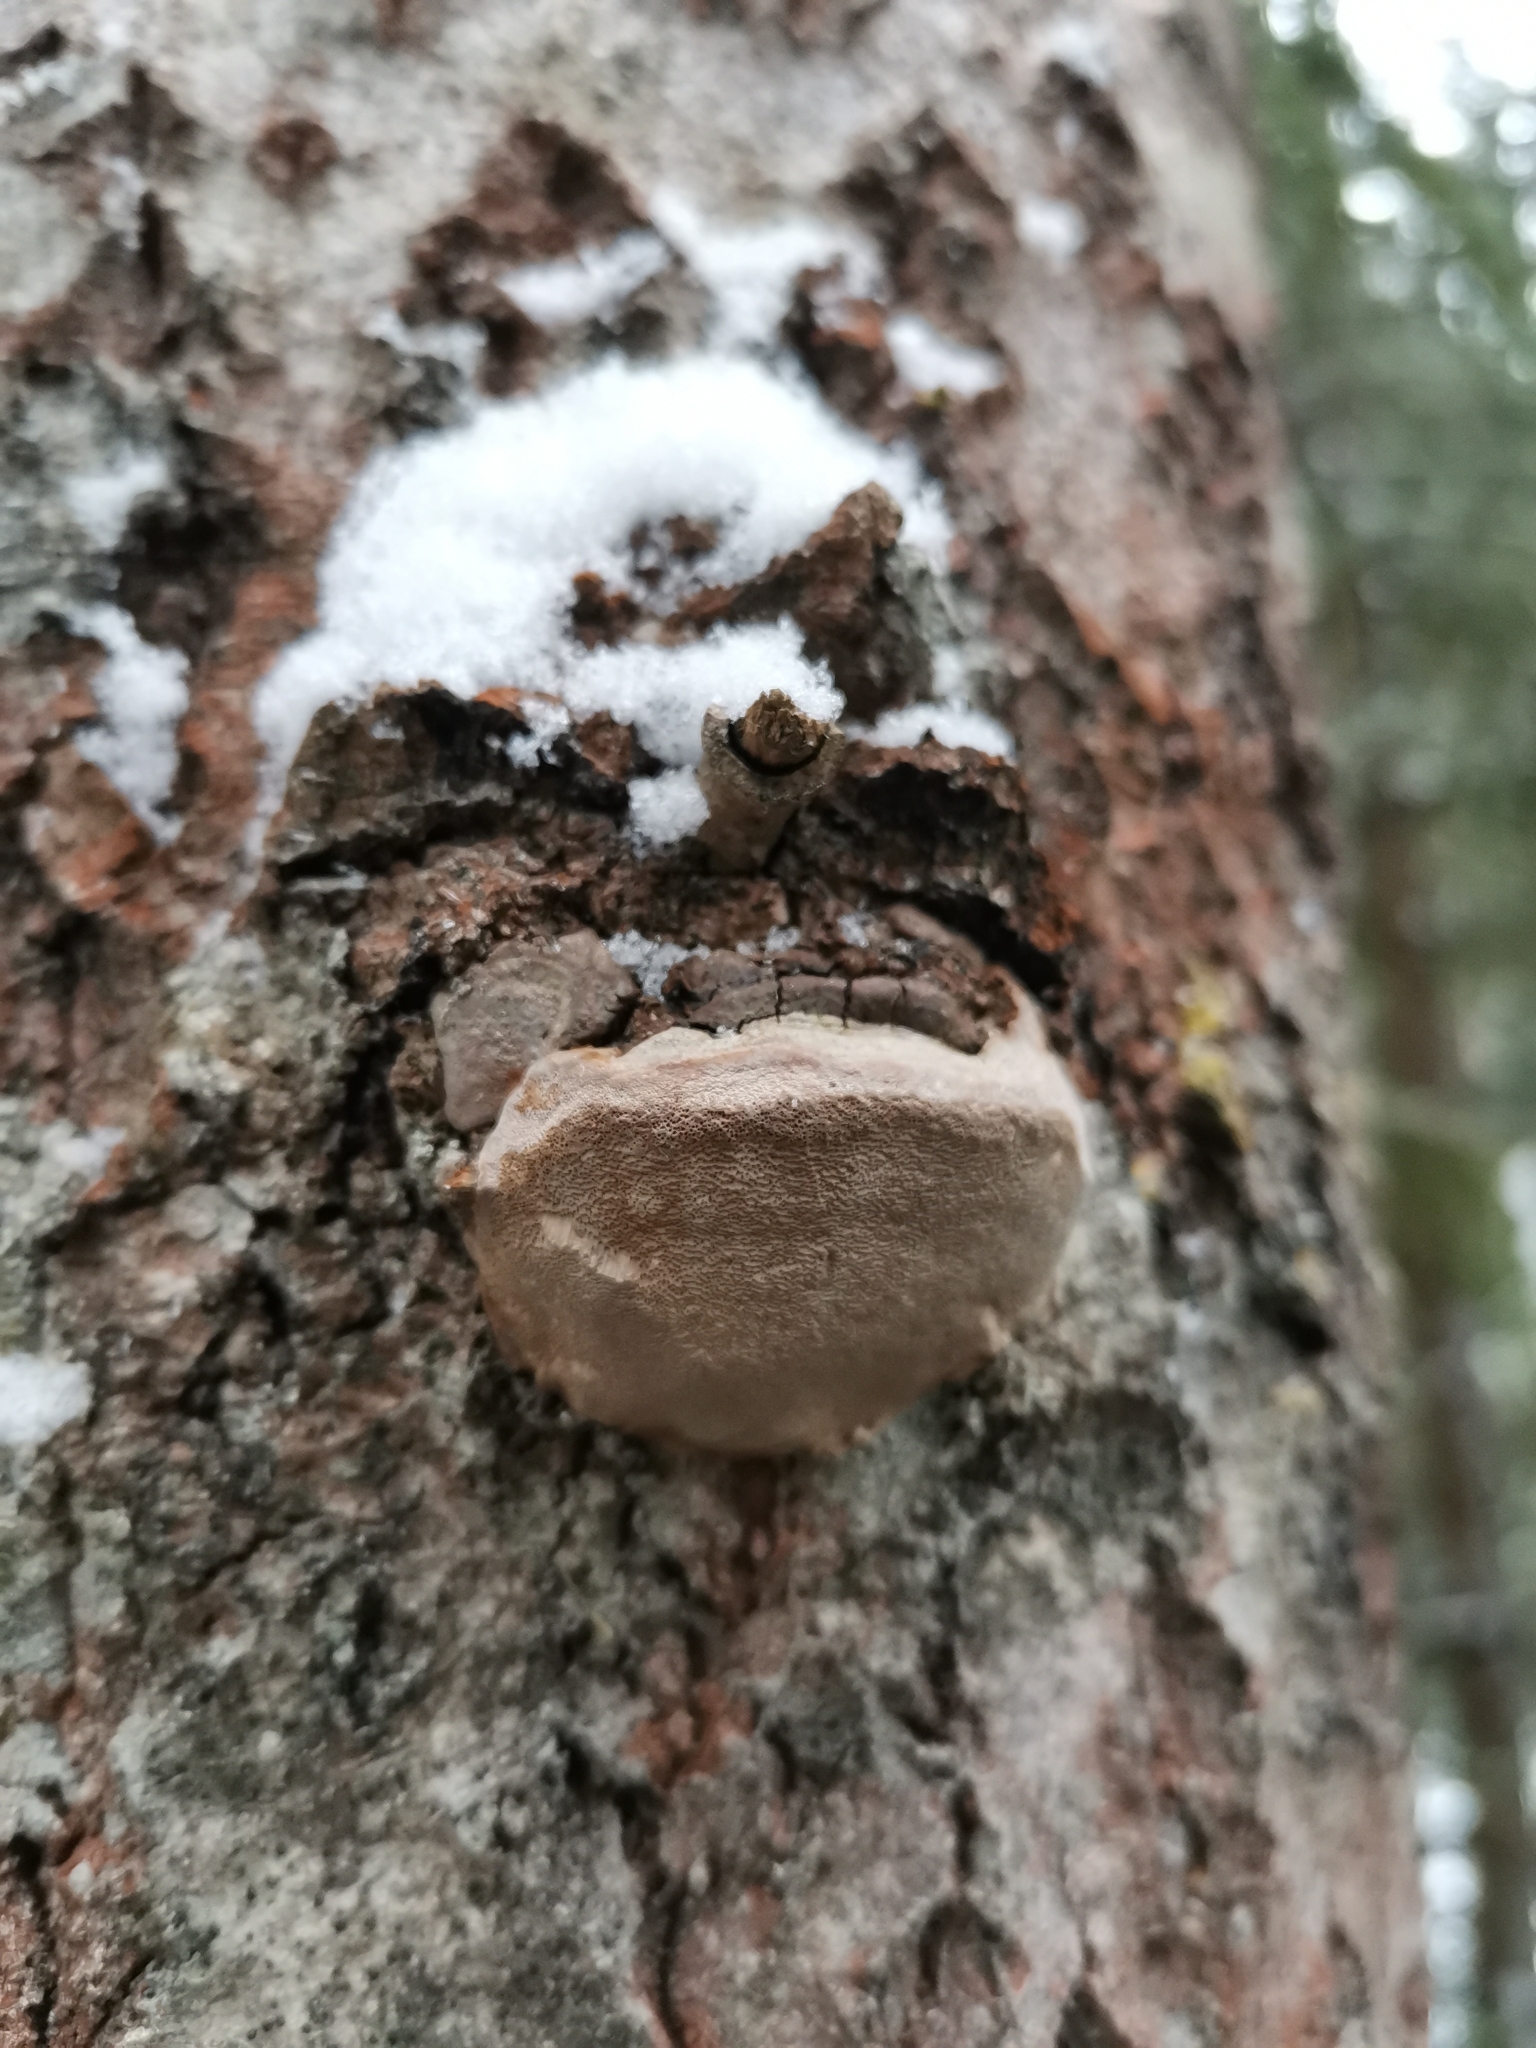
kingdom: Fungi
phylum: Basidiomycota
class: Agaricomycetes
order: Hymenochaetales
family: Hymenochaetaceae
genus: Phellinus
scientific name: Phellinus tremulae
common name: Aspen bracket
